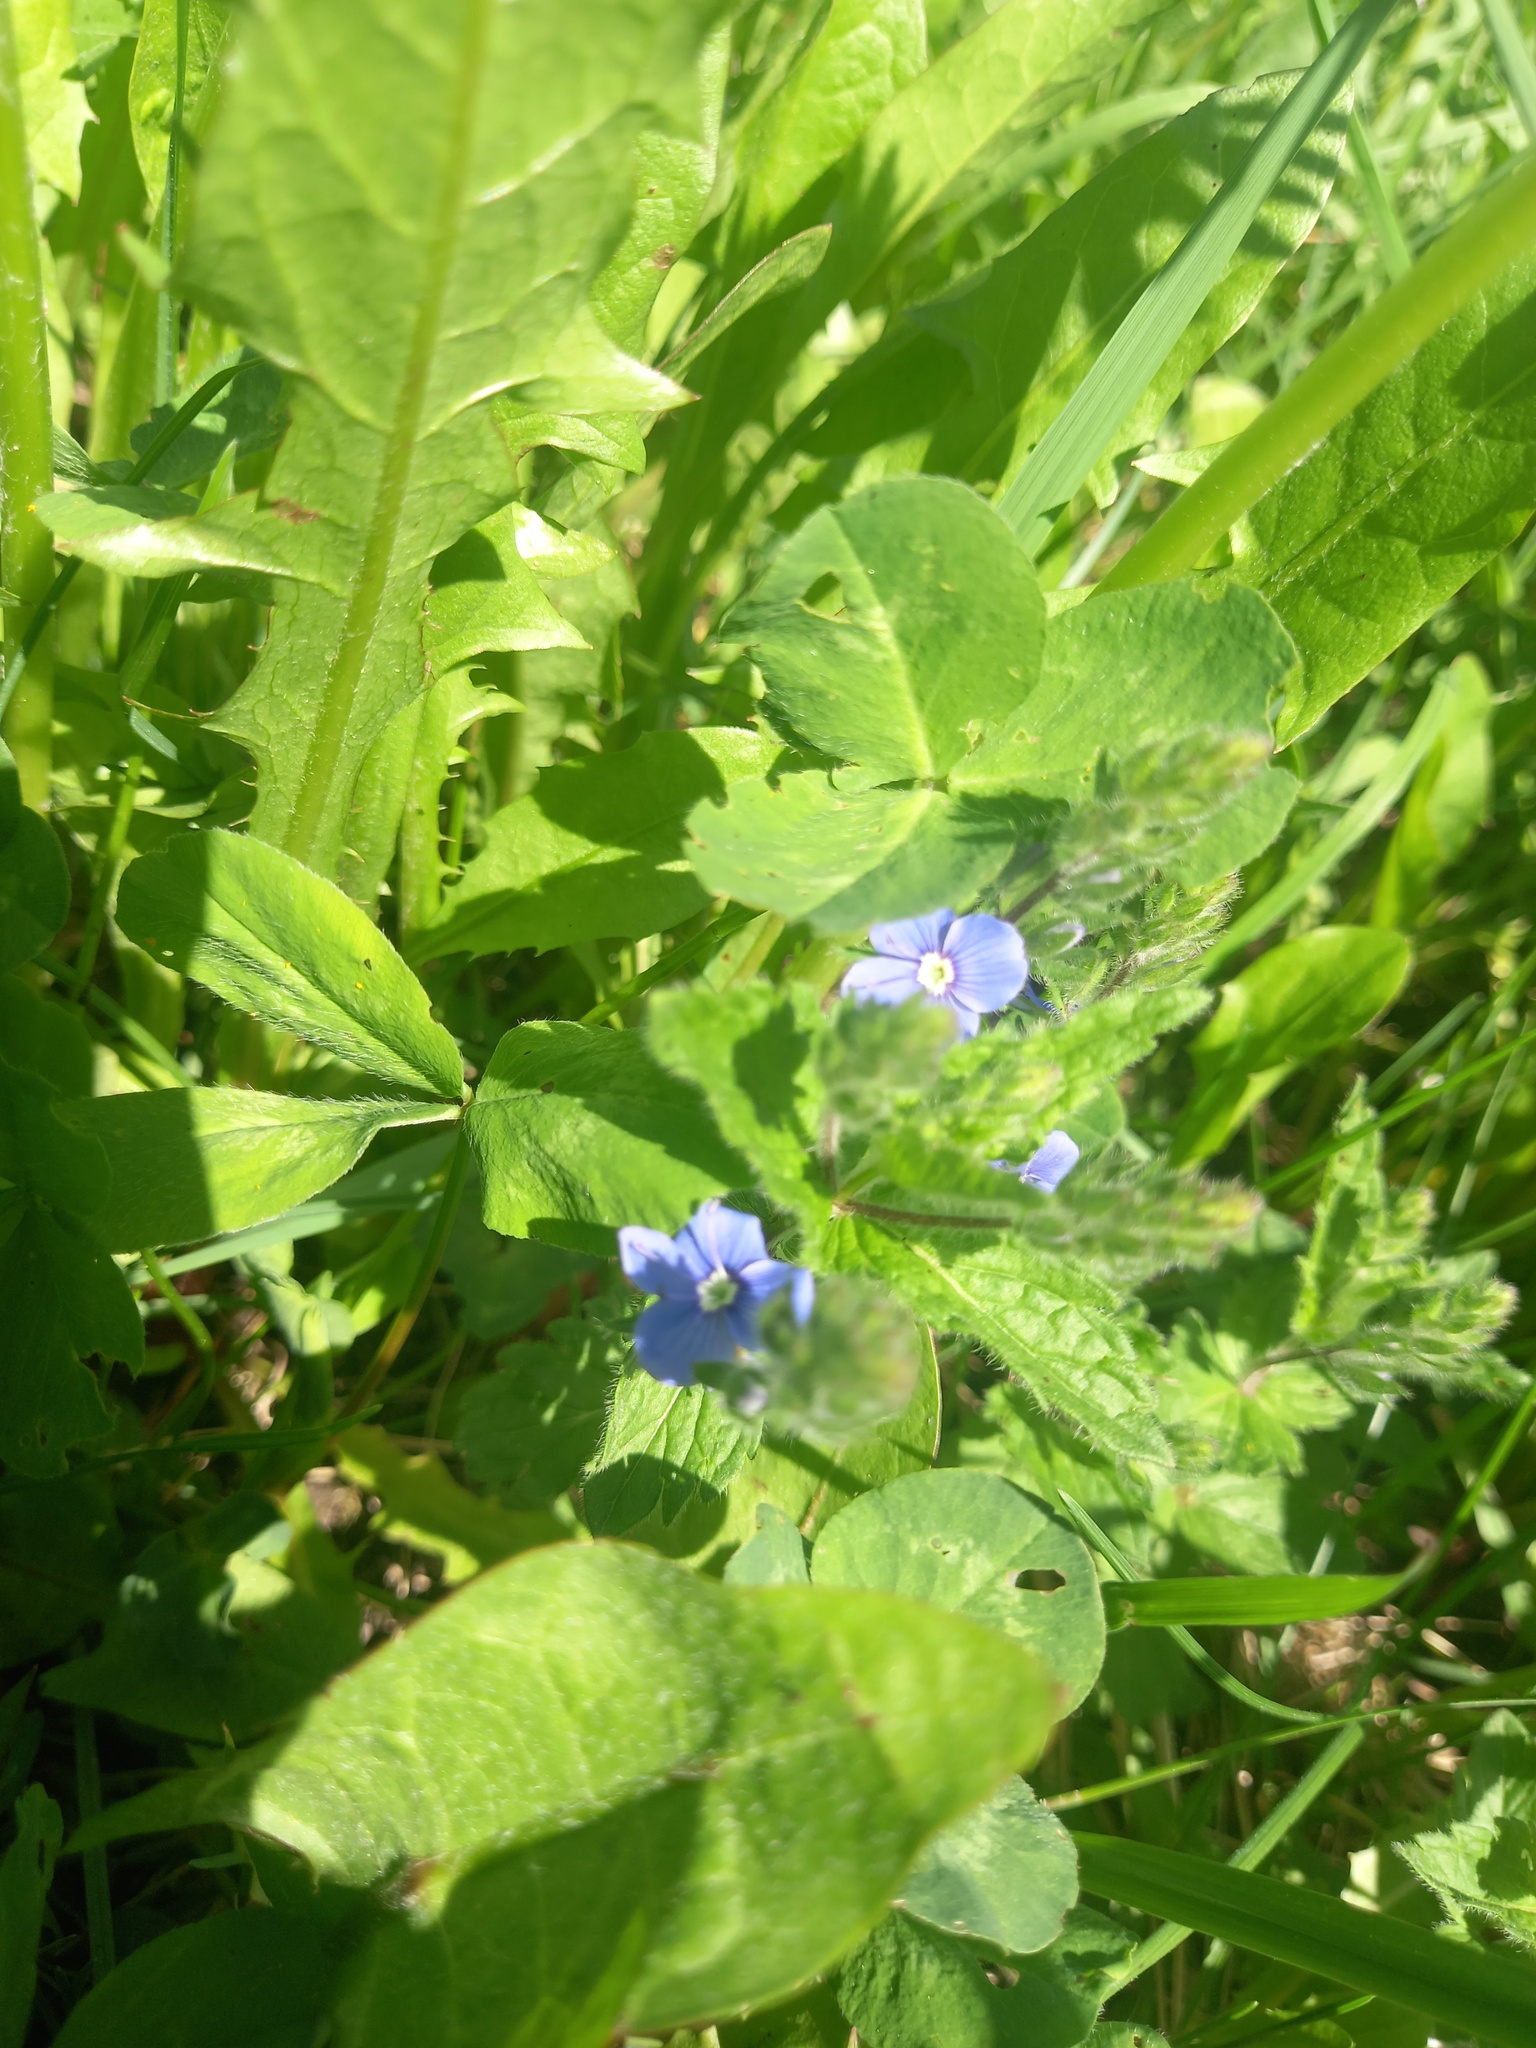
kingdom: Plantae
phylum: Tracheophyta
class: Magnoliopsida
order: Lamiales
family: Plantaginaceae
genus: Veronica
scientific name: Veronica chamaedrys
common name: Germander speedwell
